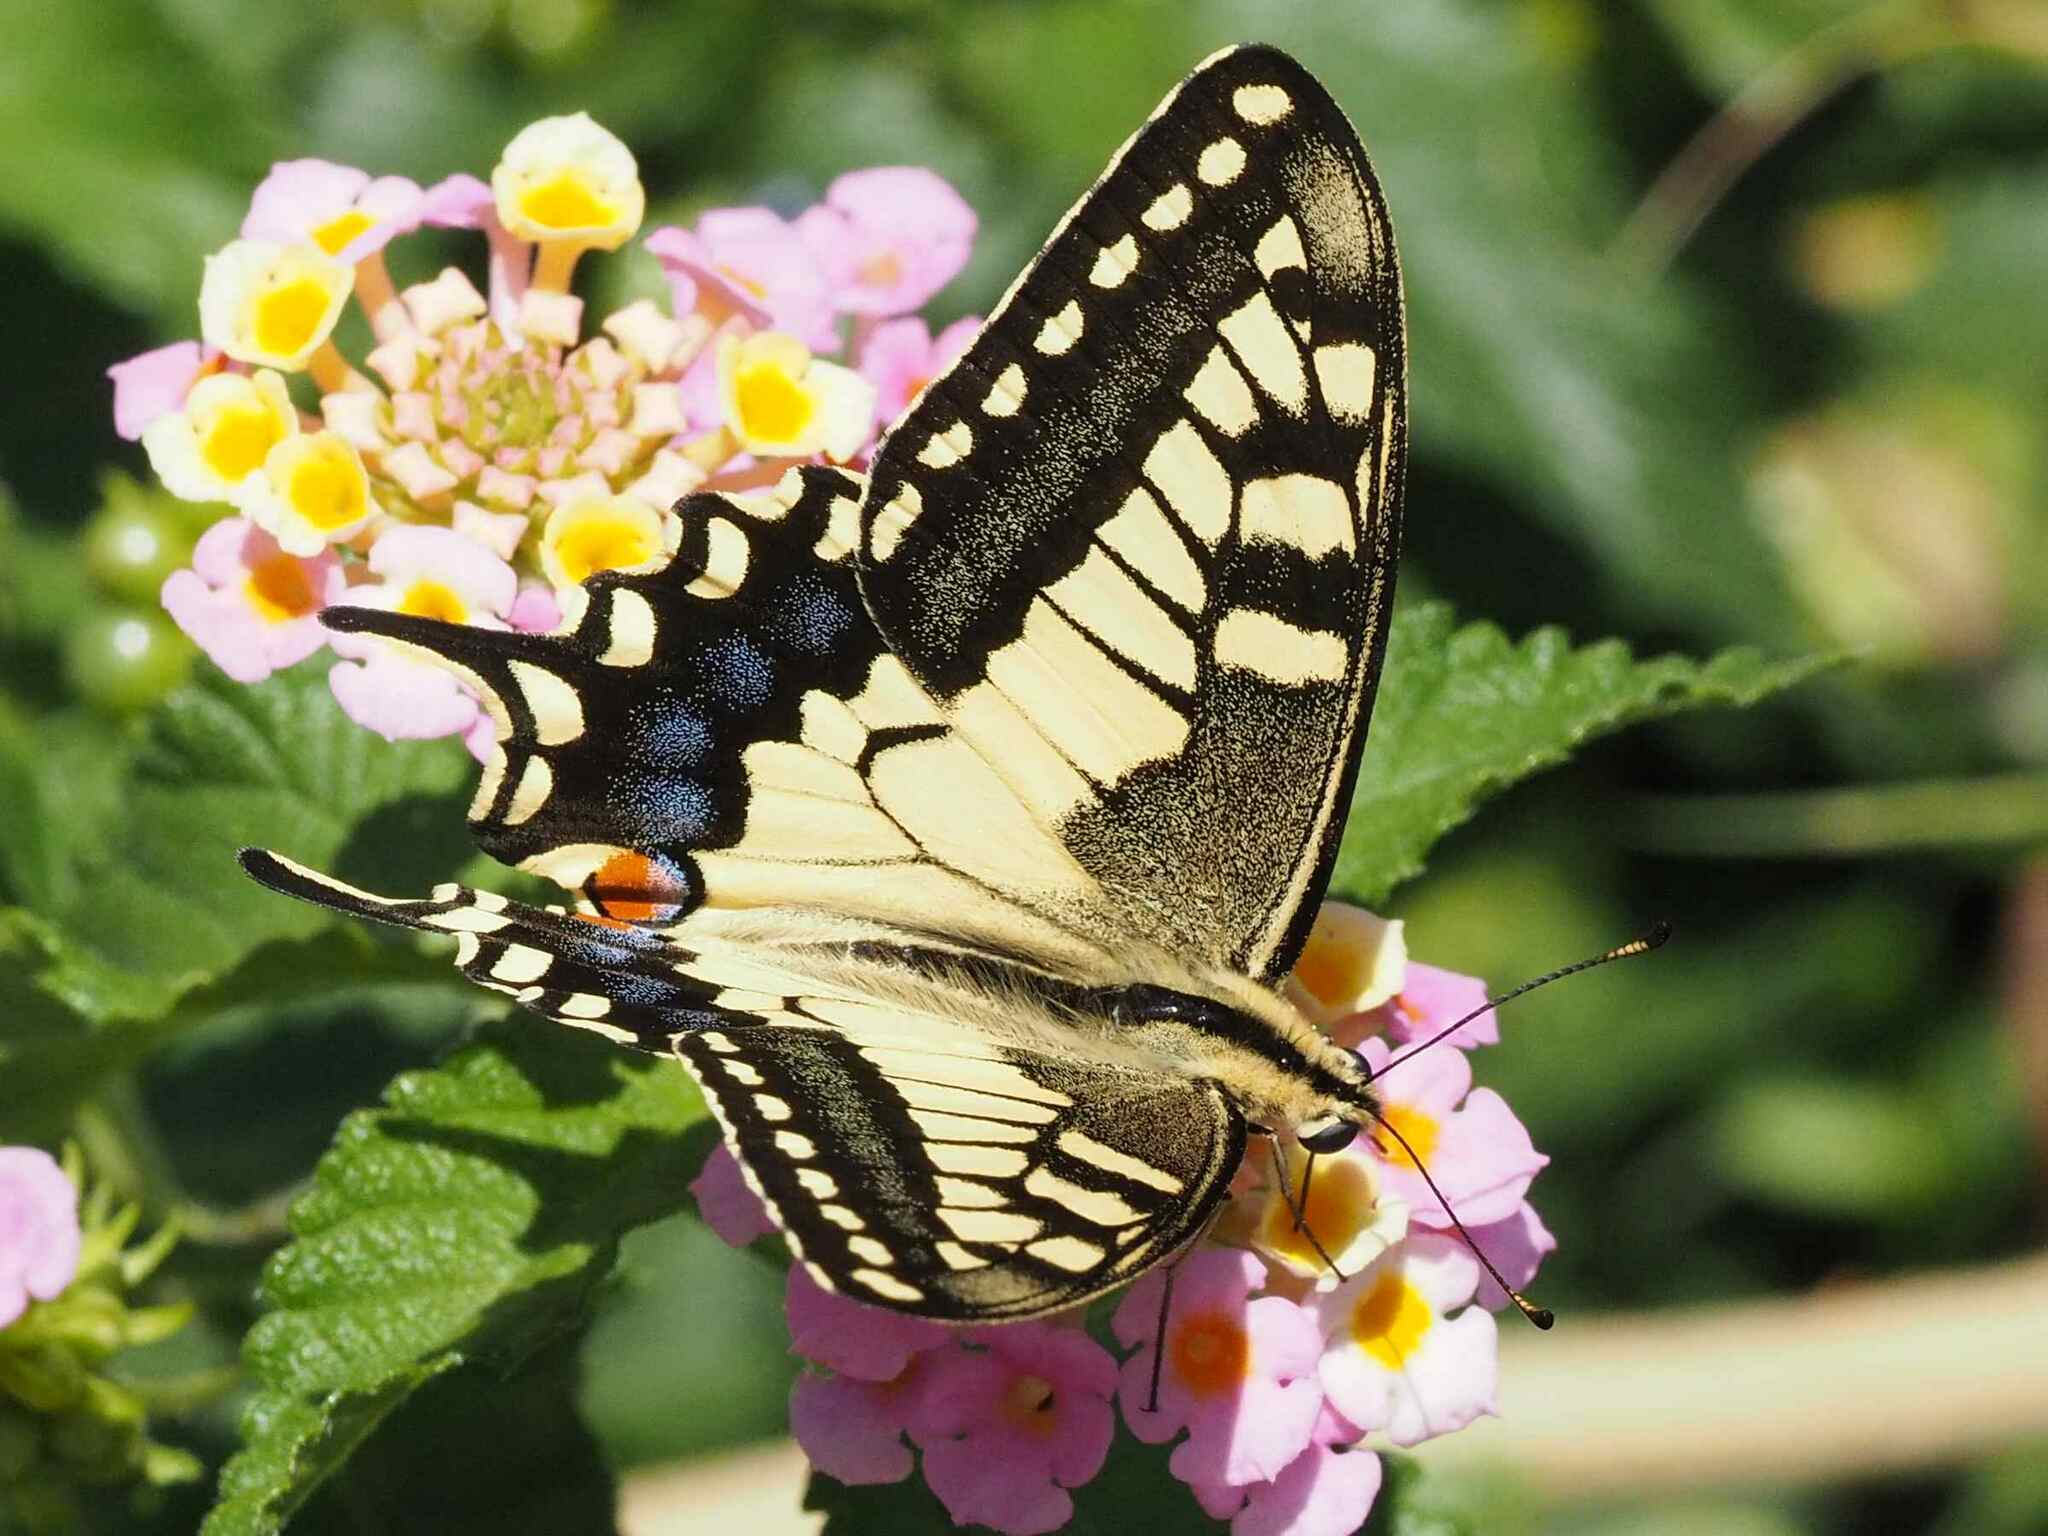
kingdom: Animalia
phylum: Arthropoda
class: Insecta
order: Lepidoptera
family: Papilionidae
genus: Papilio
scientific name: Papilio machaon
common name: Swallowtail
